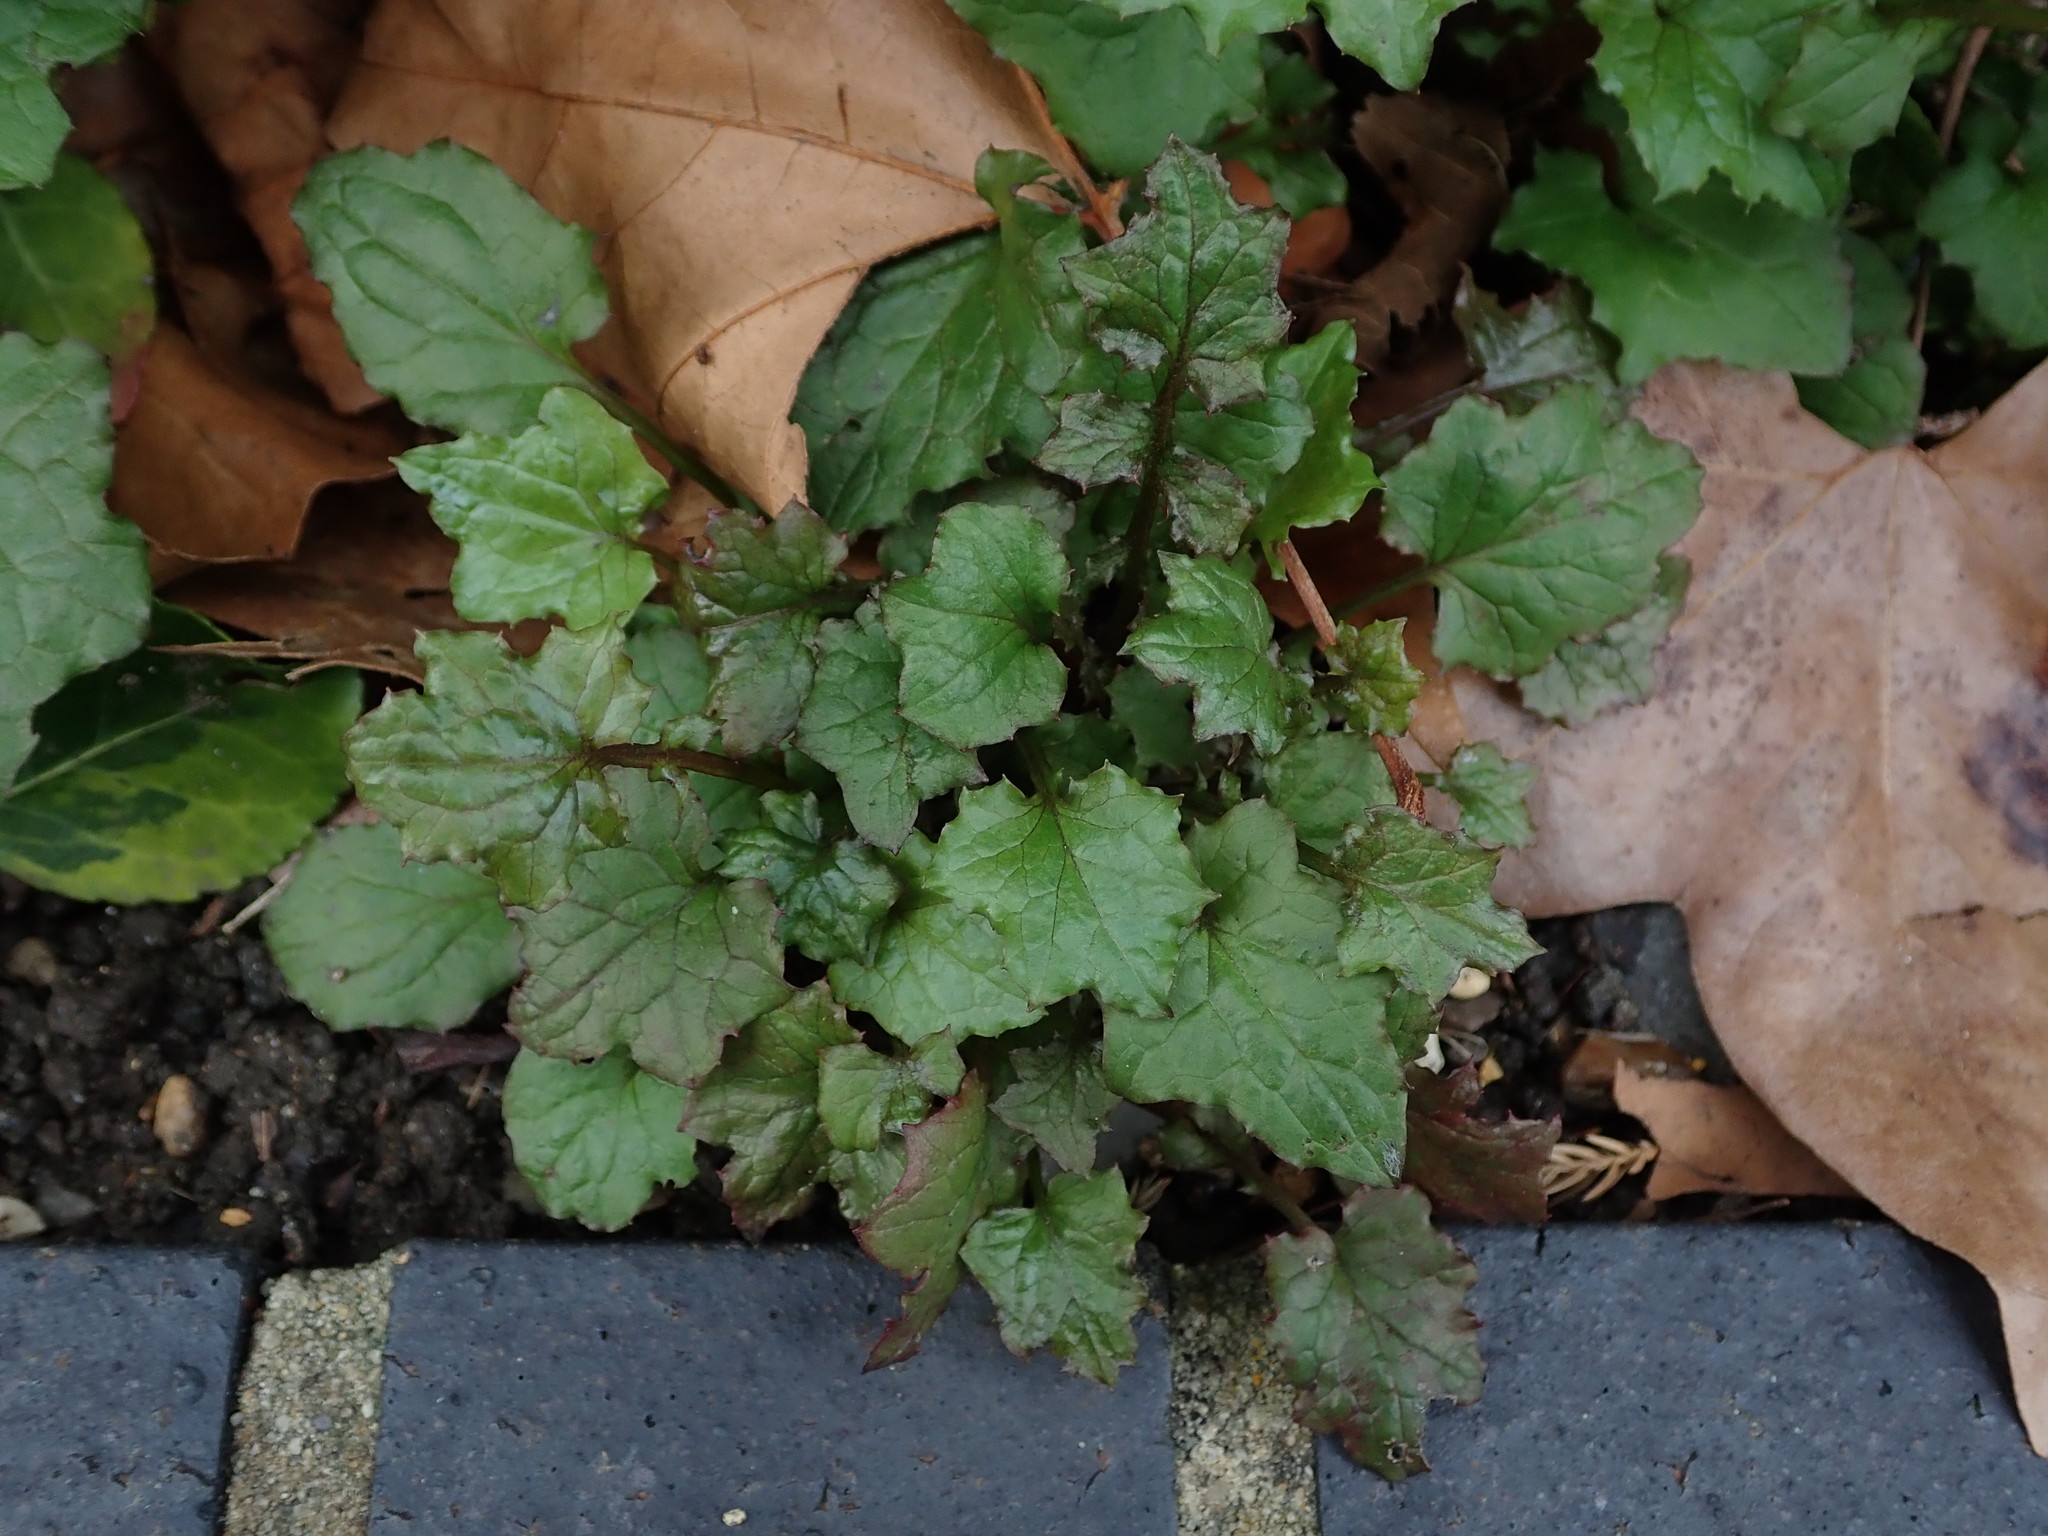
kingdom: Plantae
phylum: Tracheophyta
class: Magnoliopsida
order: Asterales
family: Asteraceae
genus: Mycelis
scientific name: Mycelis muralis
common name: Wall lettuce
